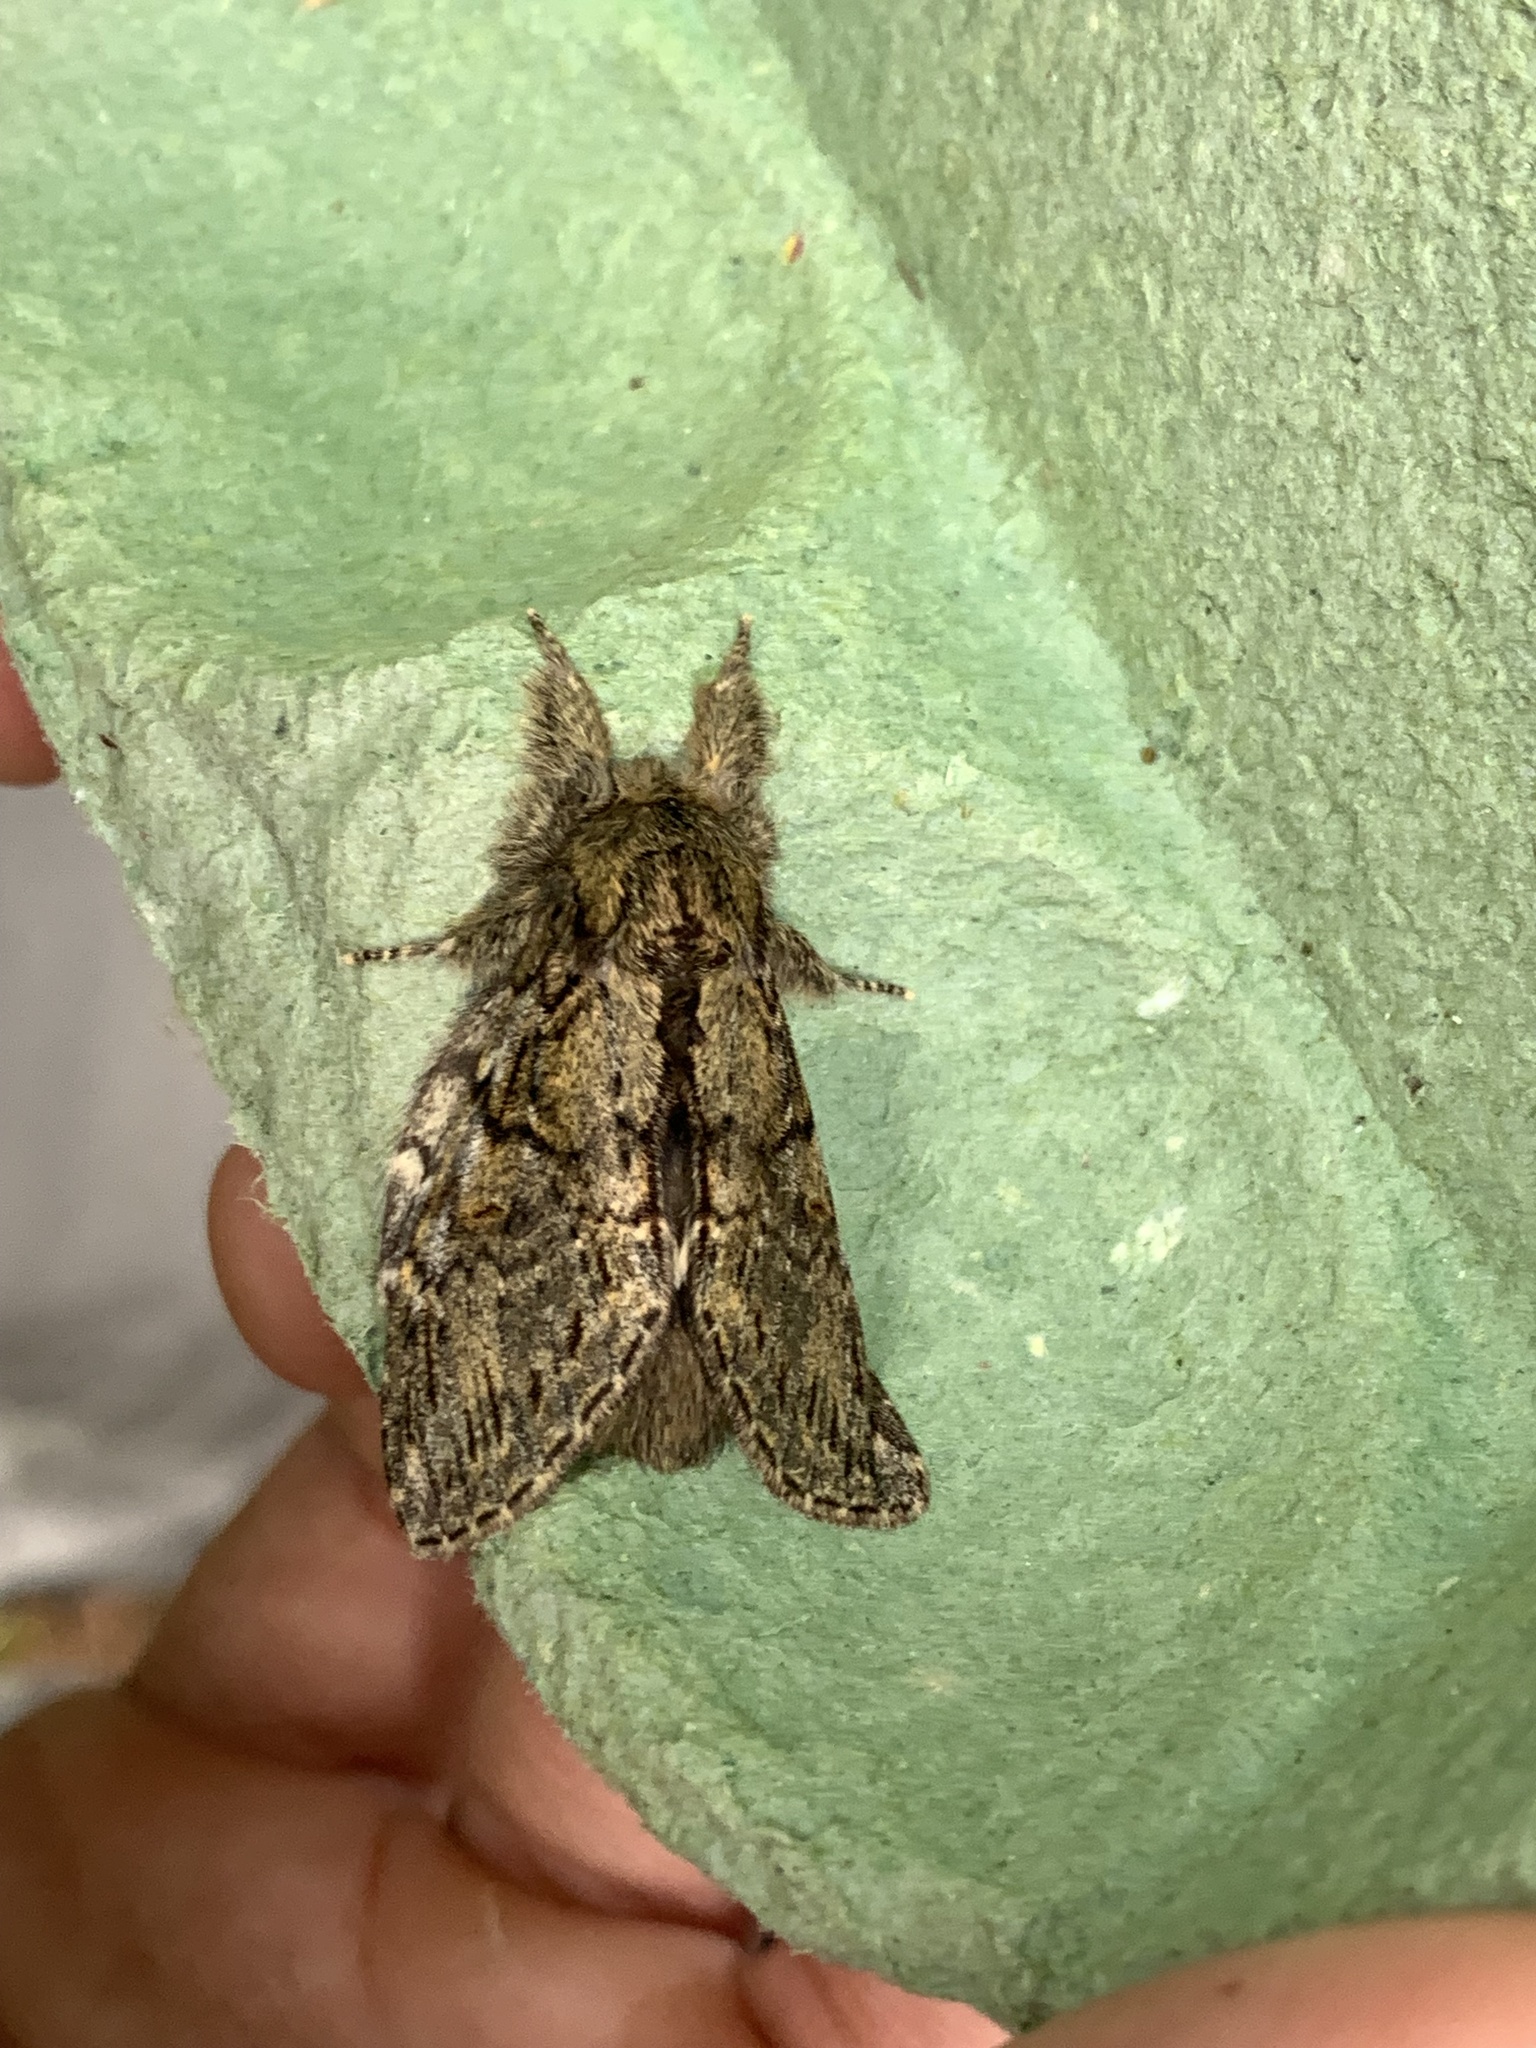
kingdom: Animalia
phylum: Arthropoda
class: Insecta
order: Lepidoptera
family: Notodontidae
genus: Peridea
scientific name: Peridea anceps
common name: Great prominent
